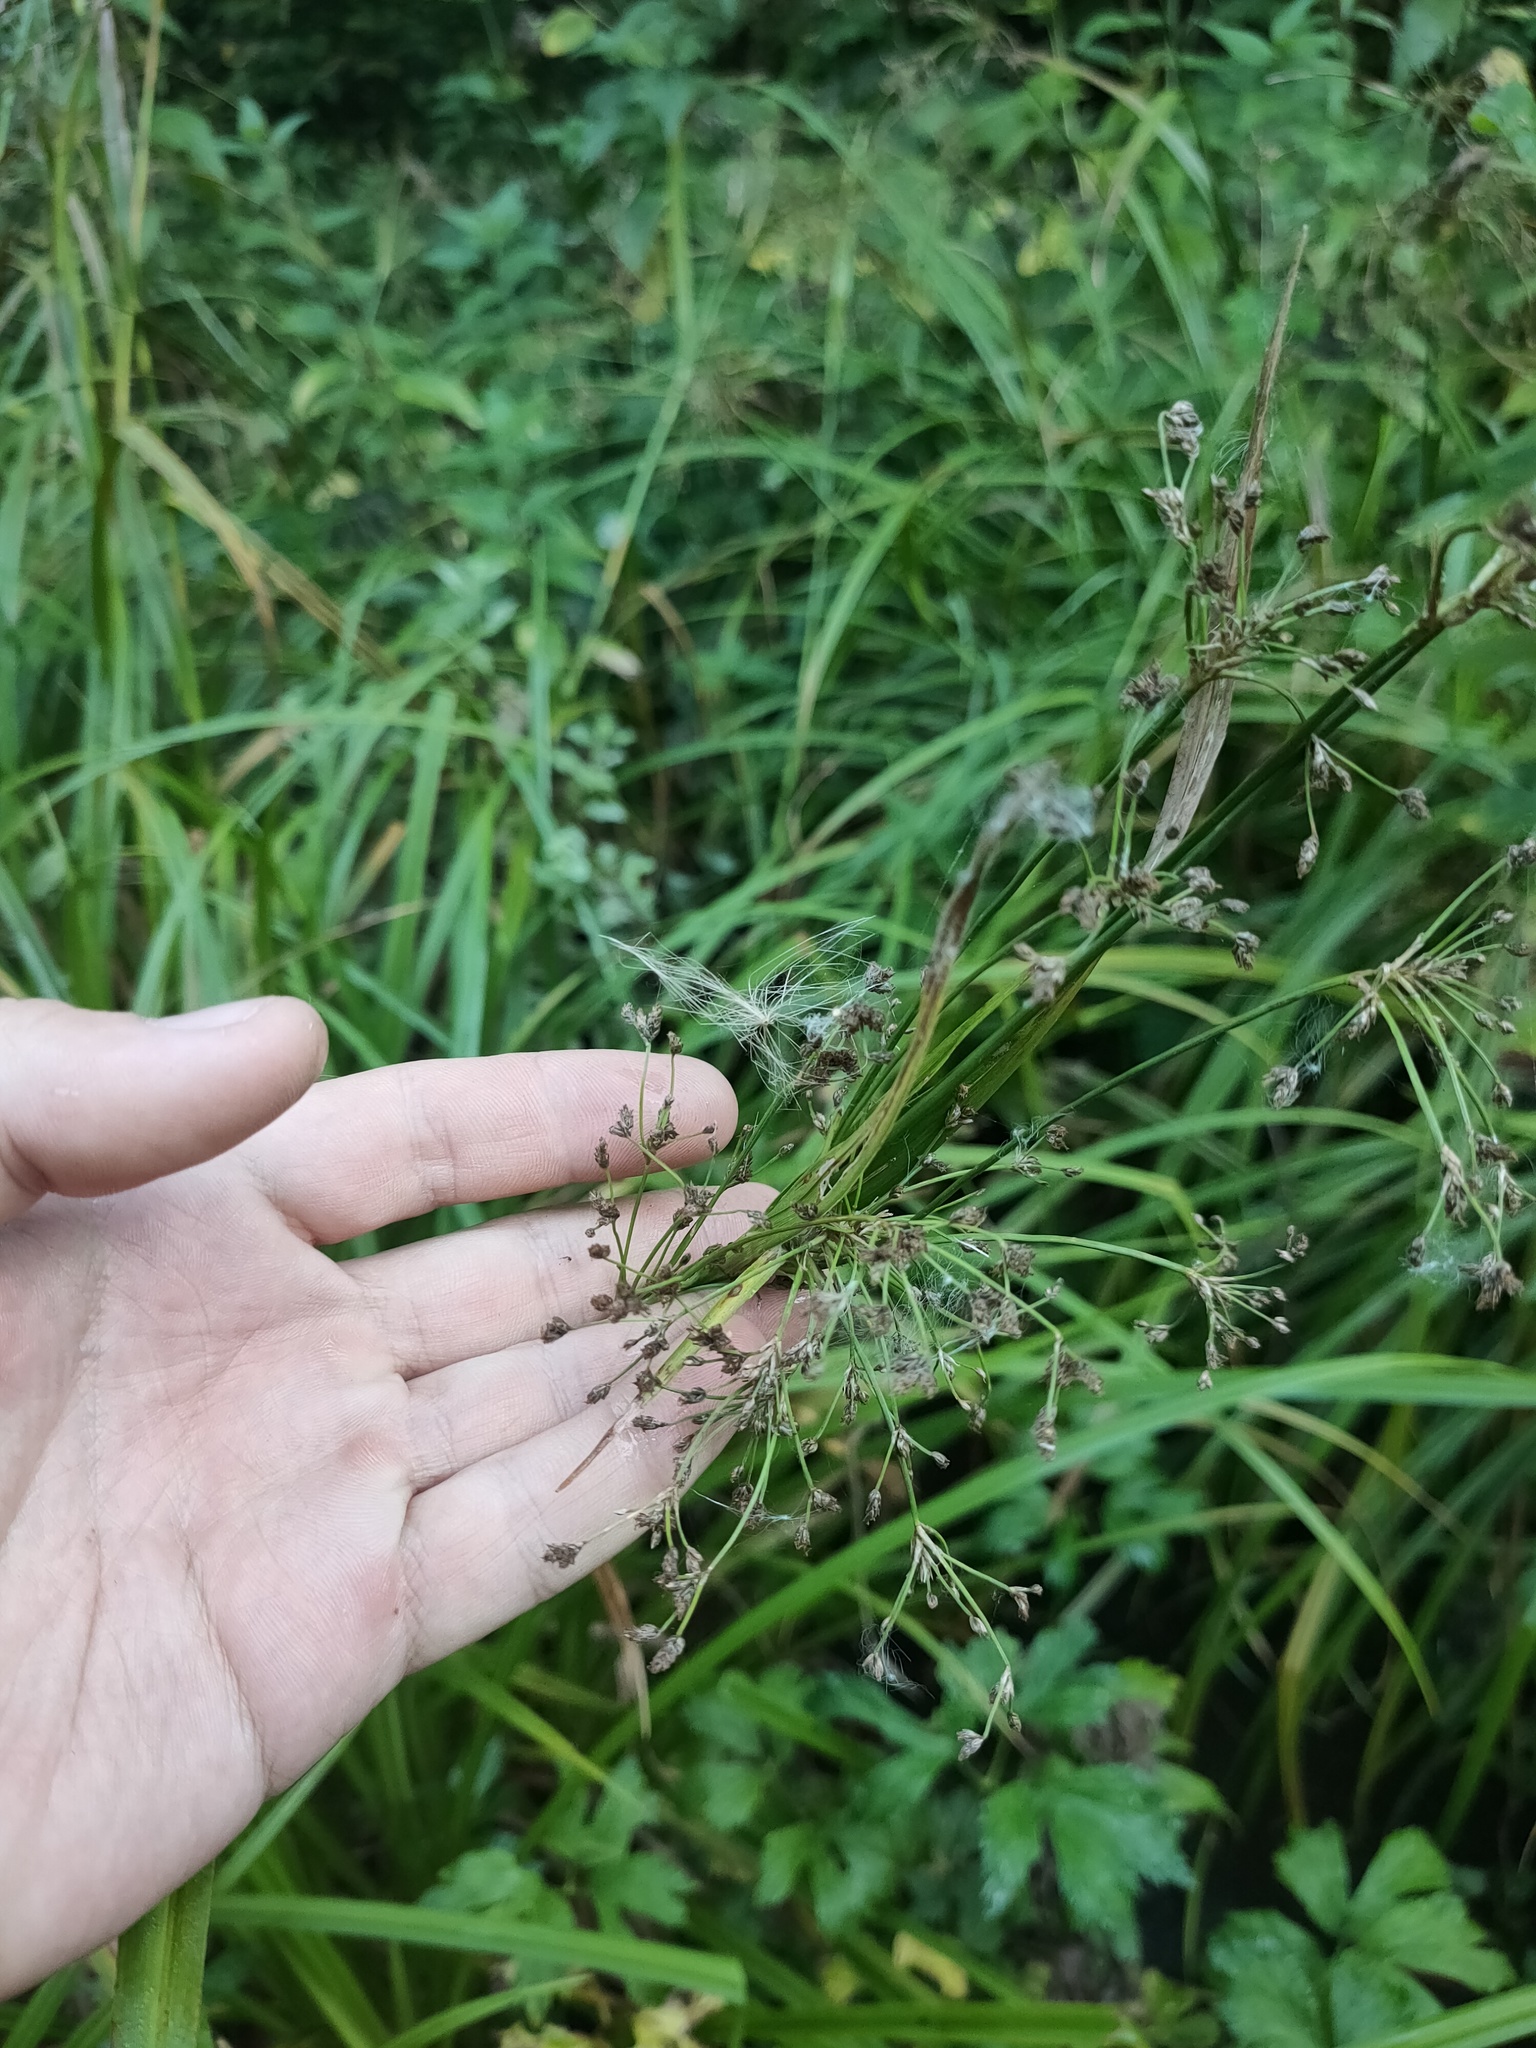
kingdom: Plantae
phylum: Tracheophyta
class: Liliopsida
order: Poales
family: Cyperaceae
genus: Scirpus
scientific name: Scirpus sylvaticus
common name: Wood club-rush
